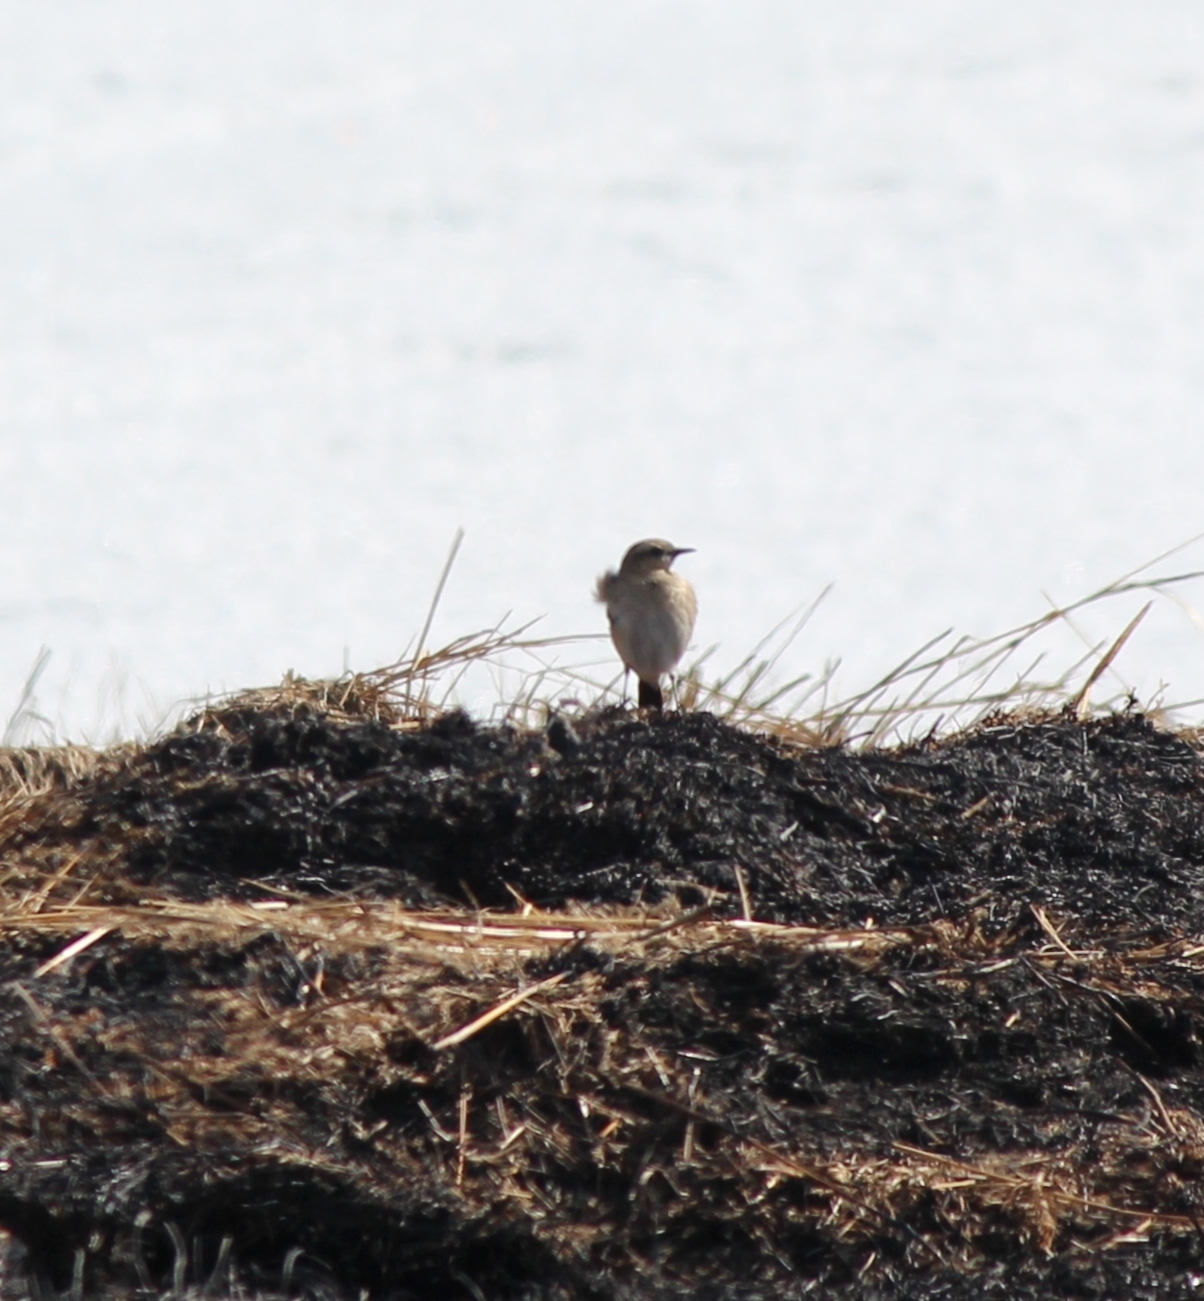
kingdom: Animalia
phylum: Chordata
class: Aves
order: Passeriformes
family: Muscicapidae
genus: Oenanthe
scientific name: Oenanthe isabellina
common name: Isabelline wheatear
